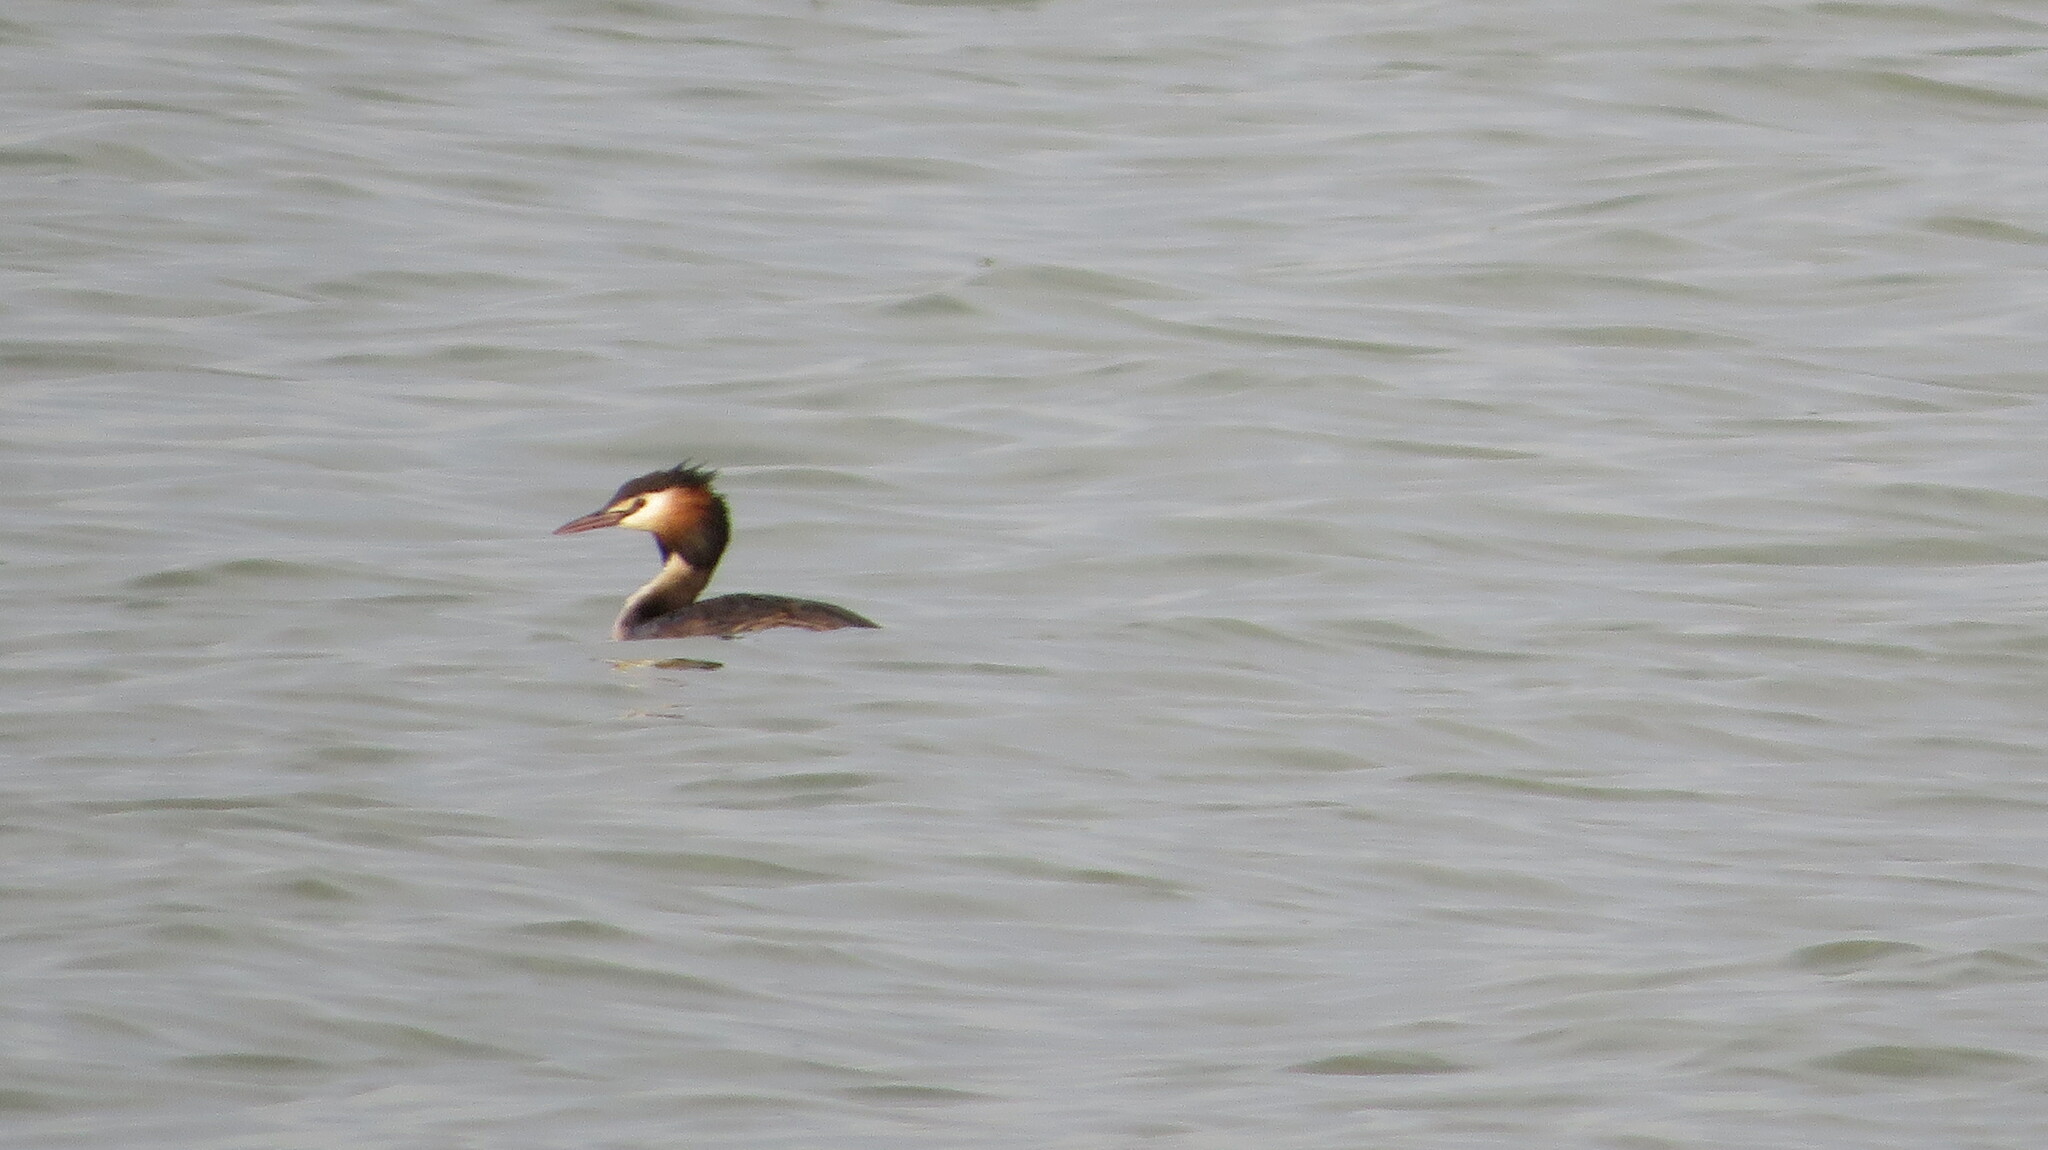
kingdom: Animalia
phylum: Chordata
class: Aves
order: Podicipediformes
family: Podicipedidae
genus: Podiceps
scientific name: Podiceps cristatus
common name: Great crested grebe
